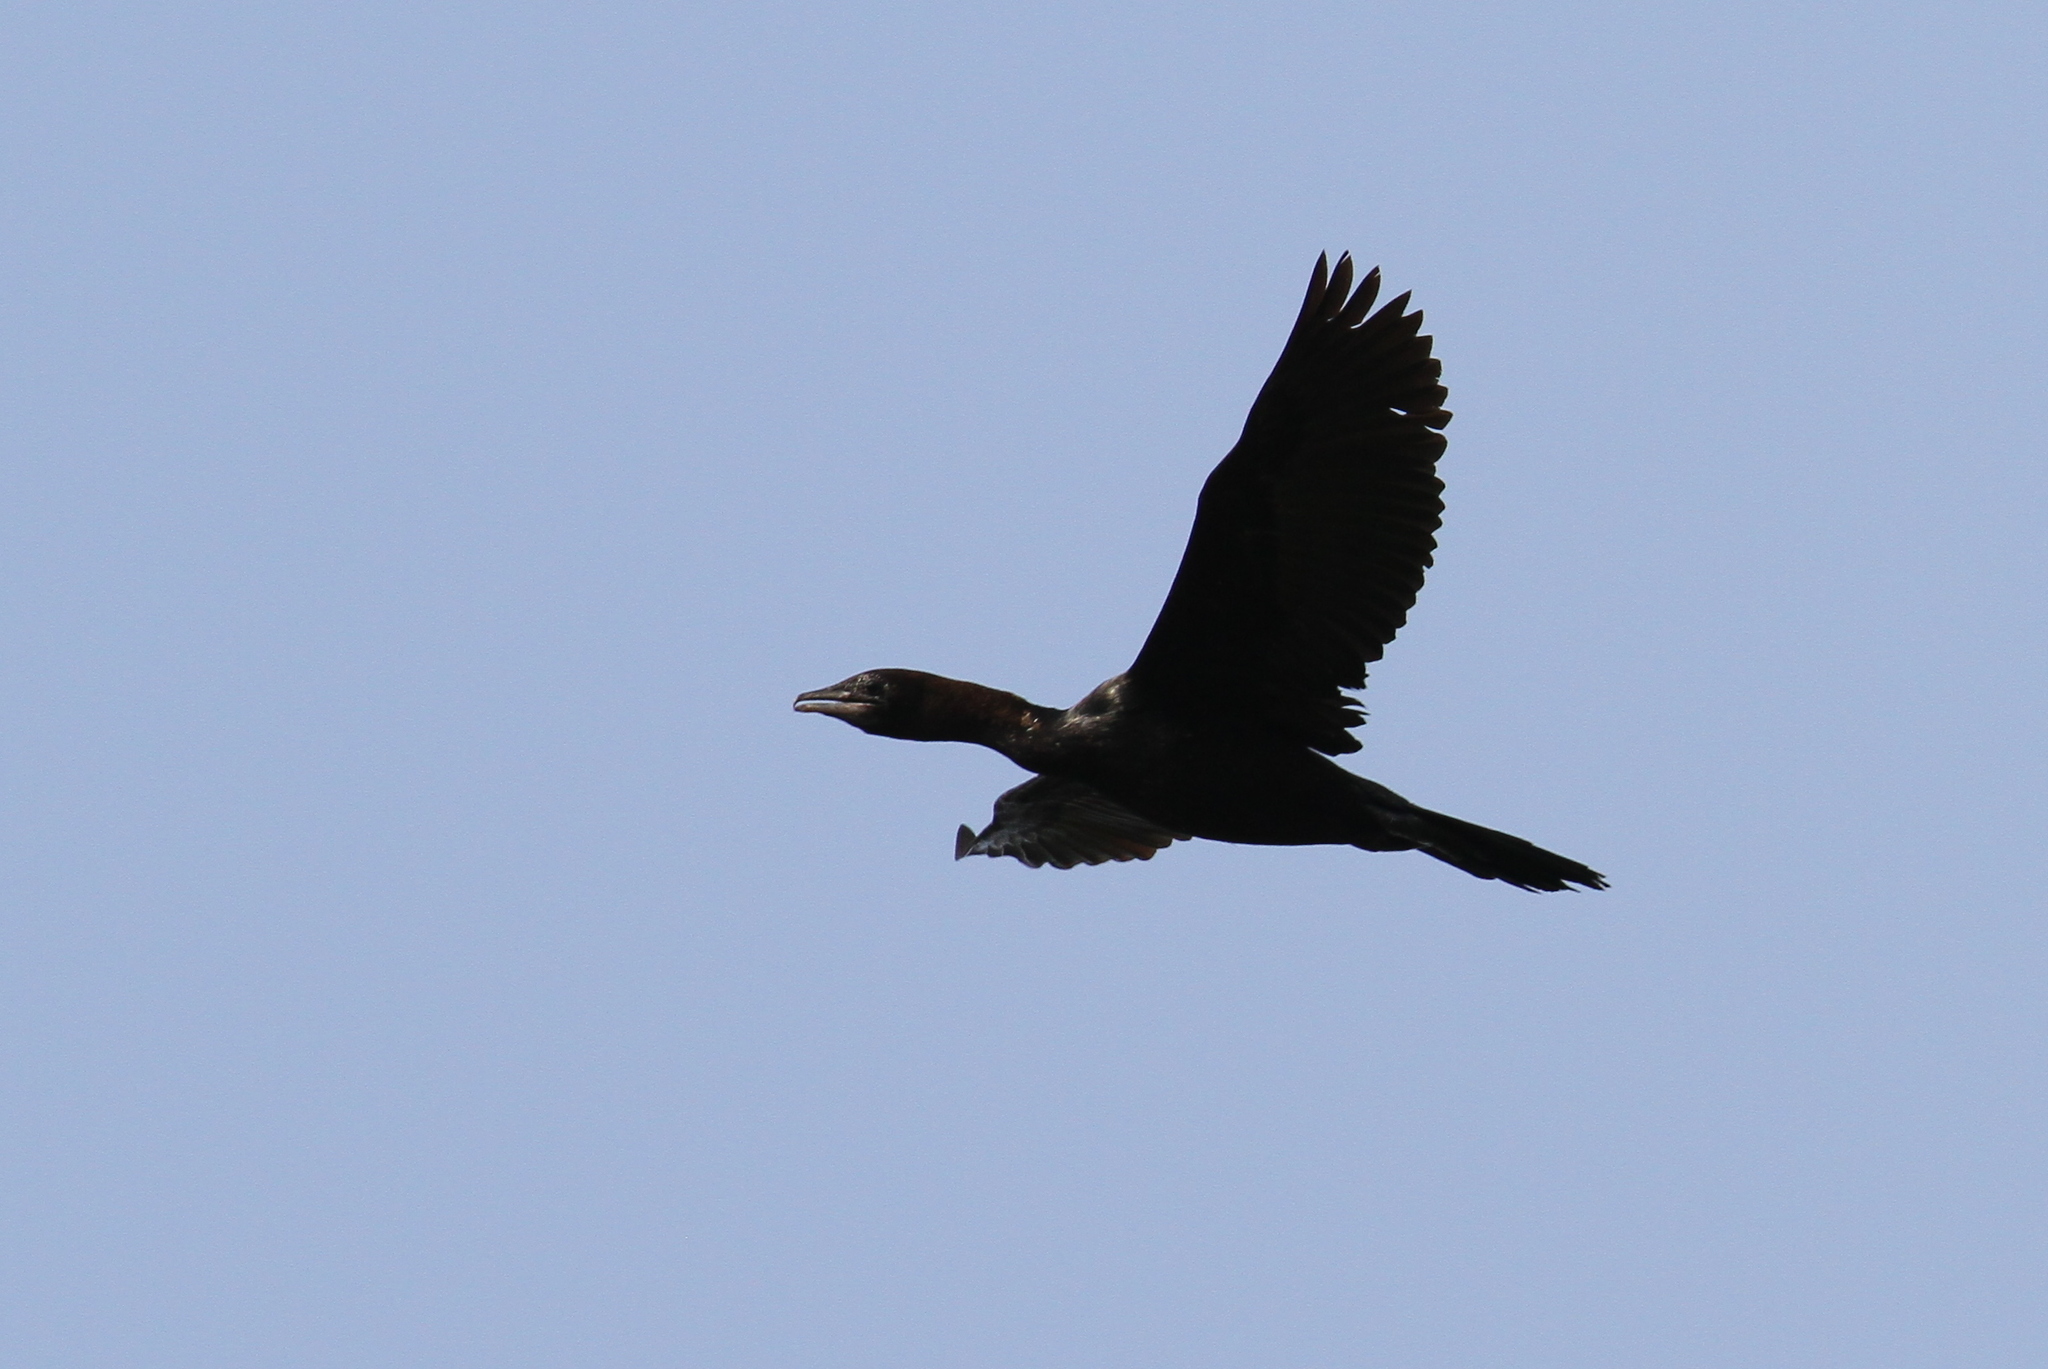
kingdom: Animalia
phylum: Chordata
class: Aves
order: Suliformes
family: Phalacrocoracidae
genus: Microcarbo
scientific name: Microcarbo pygmaeus
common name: Pygmy cormorant
